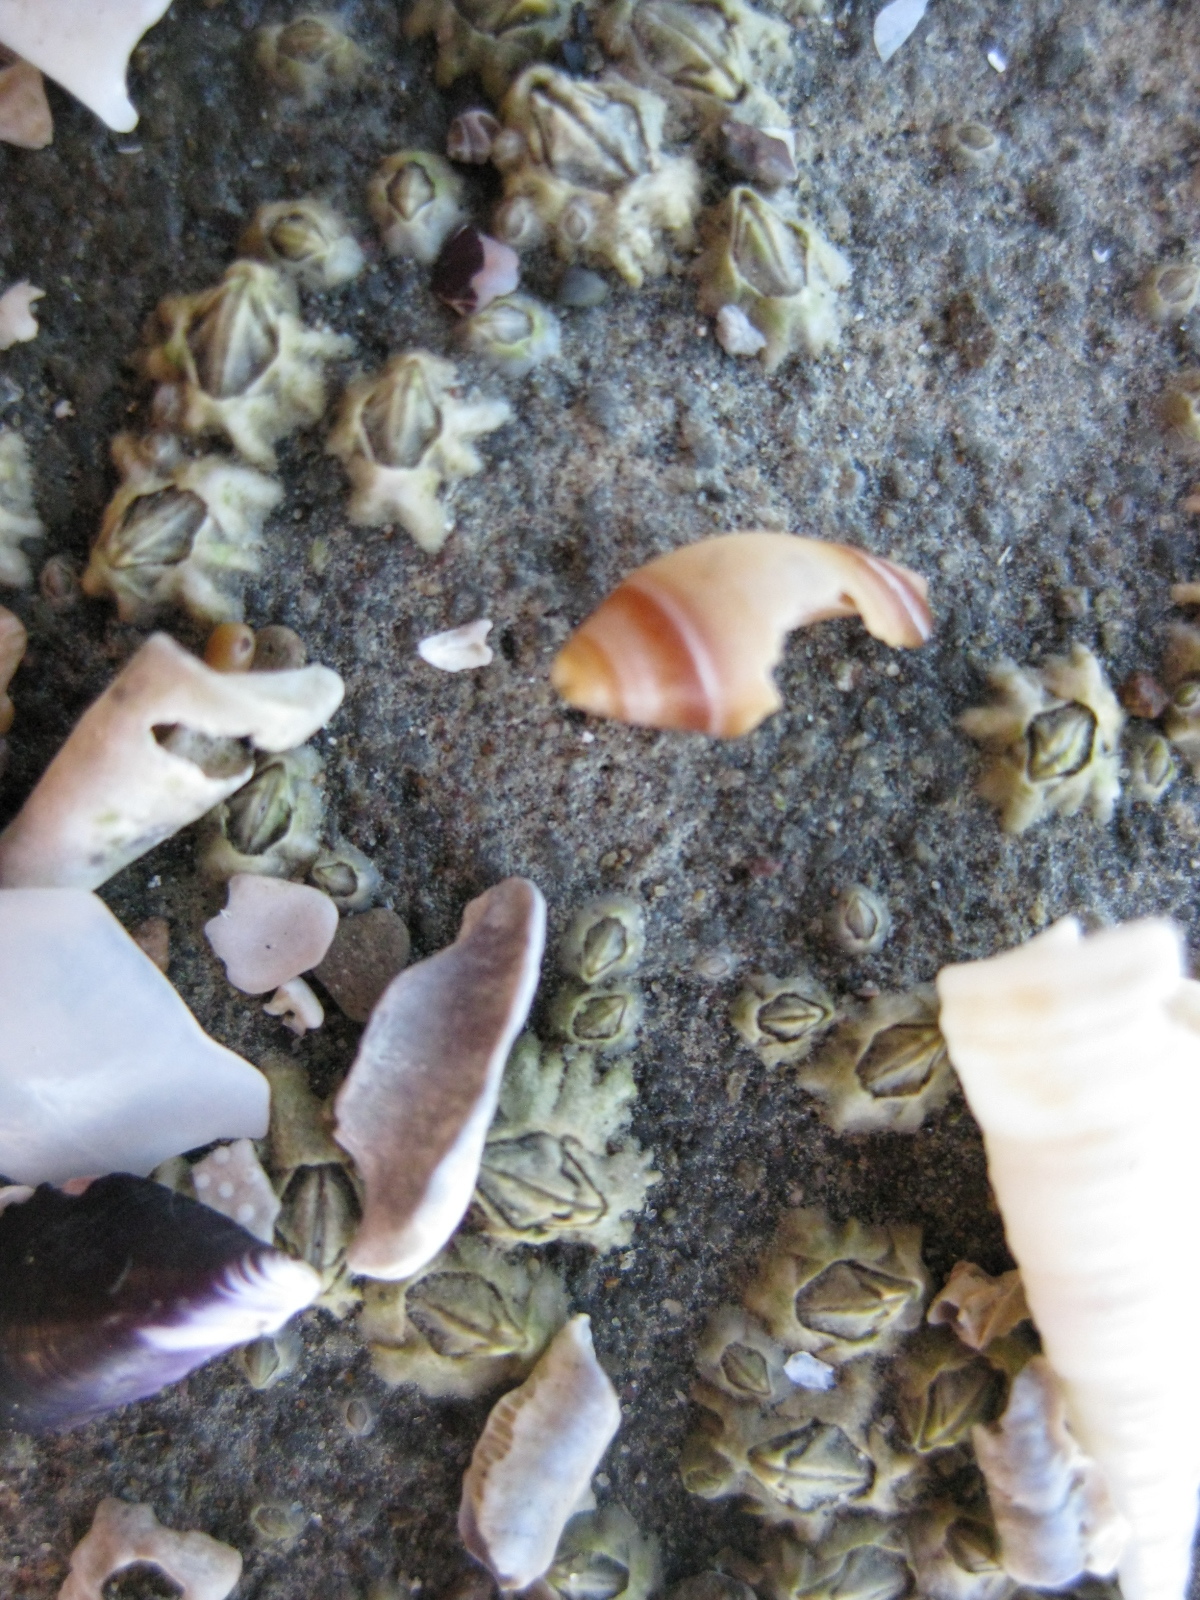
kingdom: Animalia
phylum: Mollusca
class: Gastropoda
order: Neogastropoda
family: Ancillariidae
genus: Amalda
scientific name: Amalda australis
